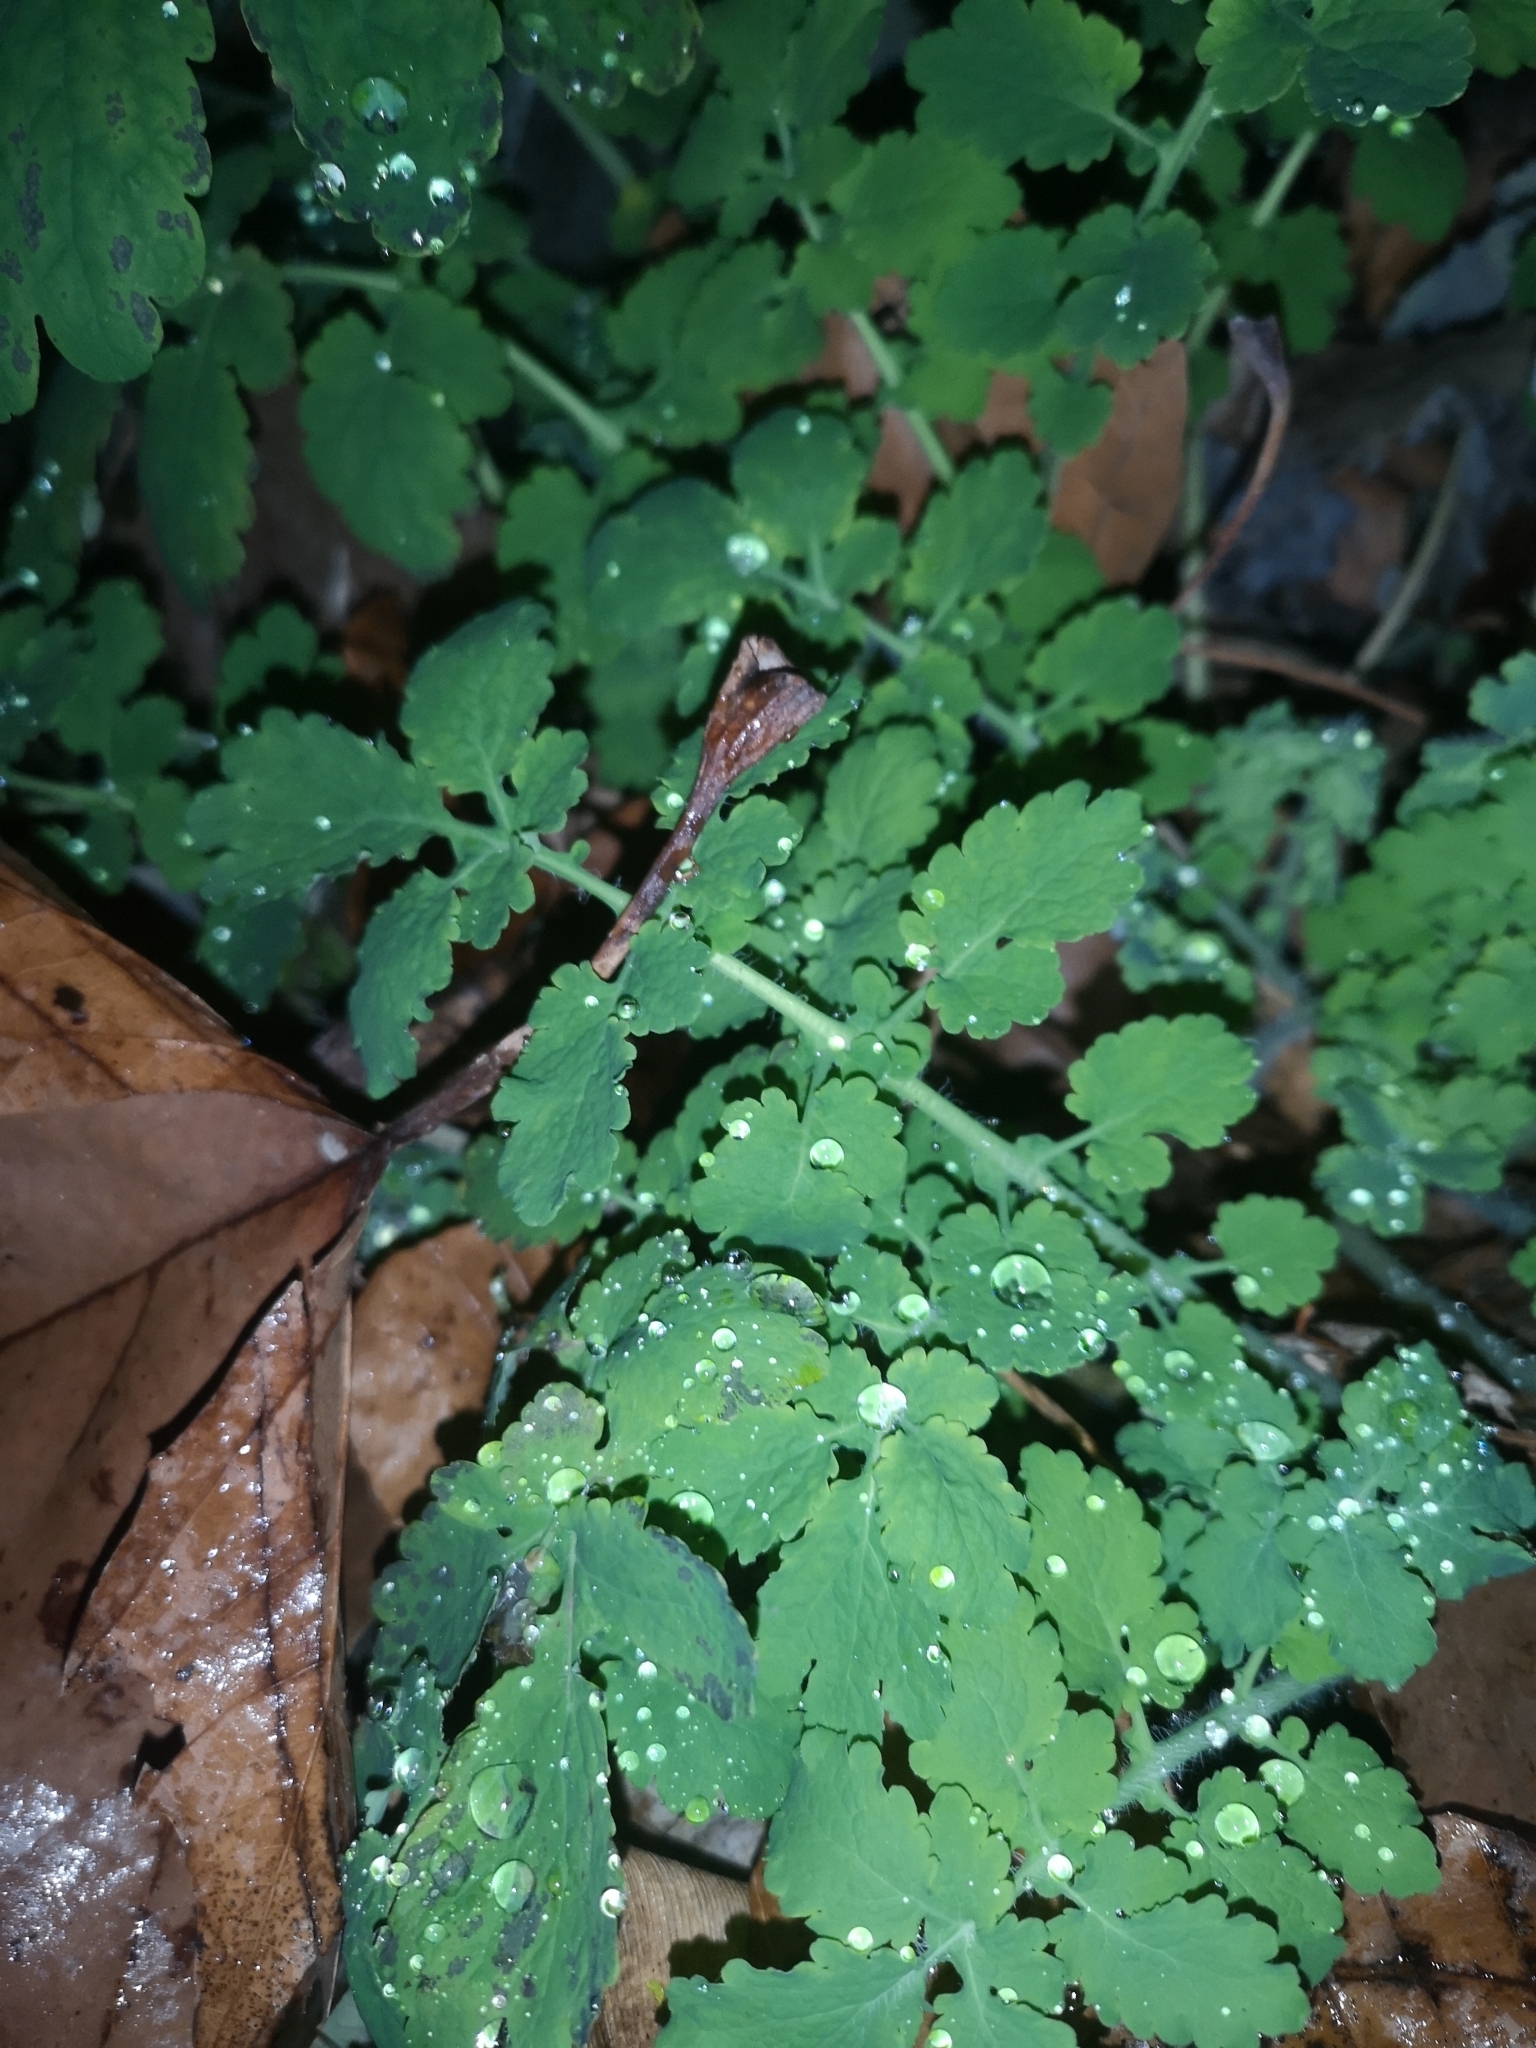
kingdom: Plantae
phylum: Tracheophyta
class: Magnoliopsida
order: Ranunculales
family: Papaveraceae
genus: Chelidonium
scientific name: Chelidonium majus
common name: Greater celandine
